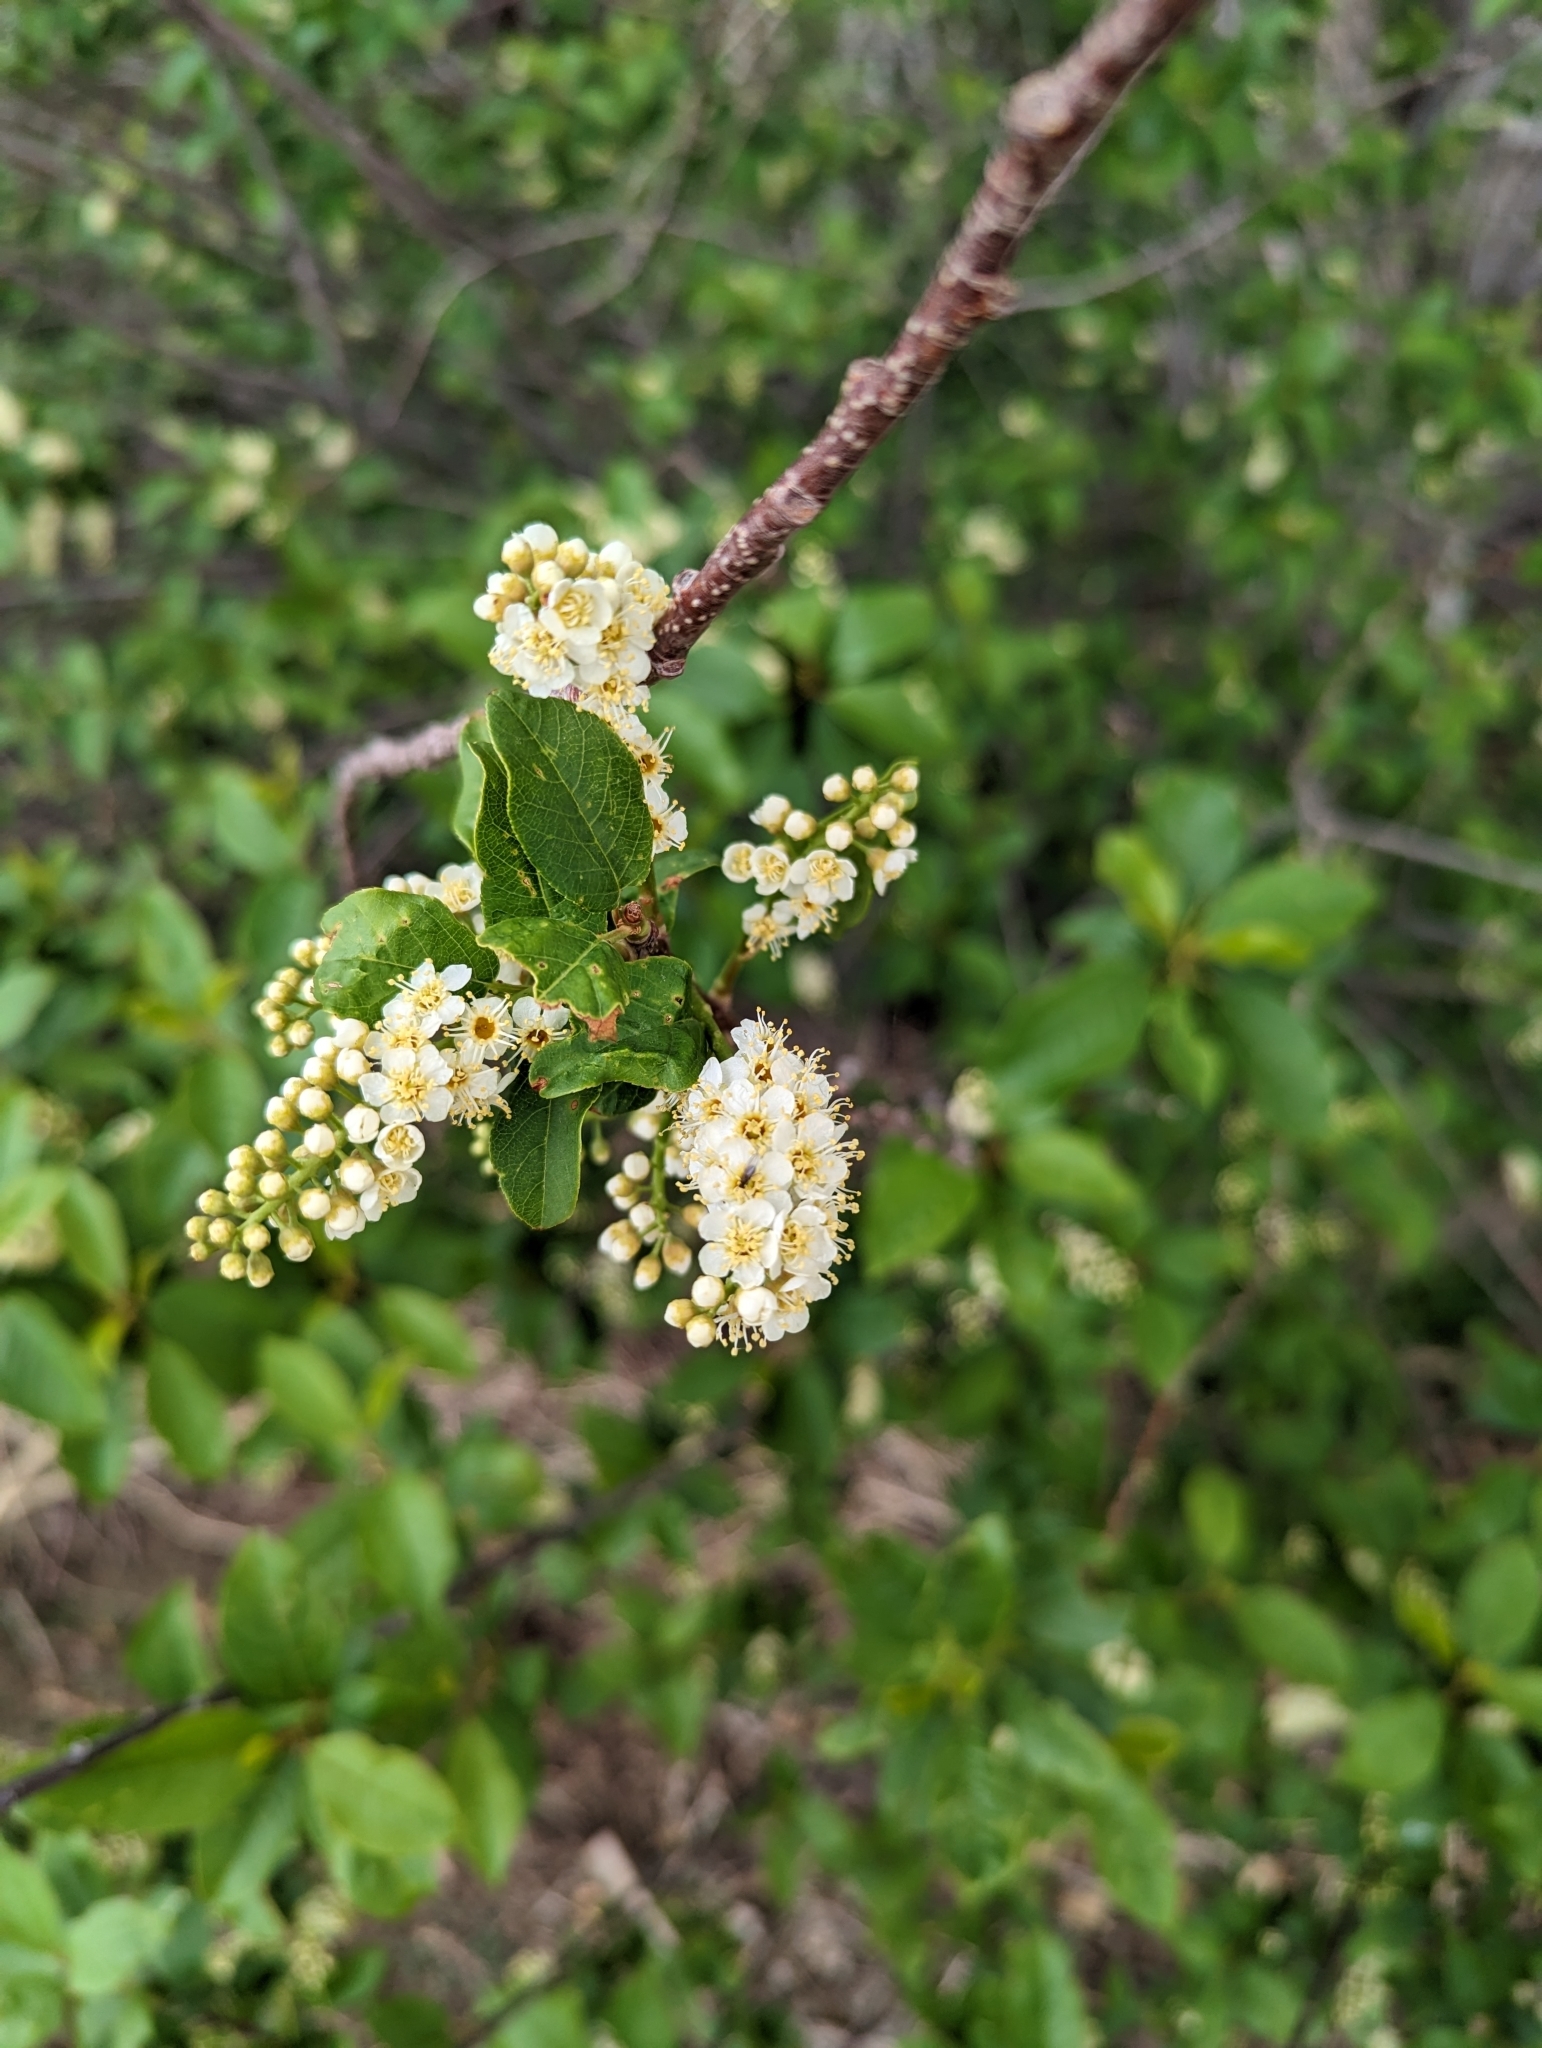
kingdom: Plantae
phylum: Tracheophyta
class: Magnoliopsida
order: Rosales
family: Rosaceae
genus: Prunus
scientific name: Prunus virginiana
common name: Chokecherry
